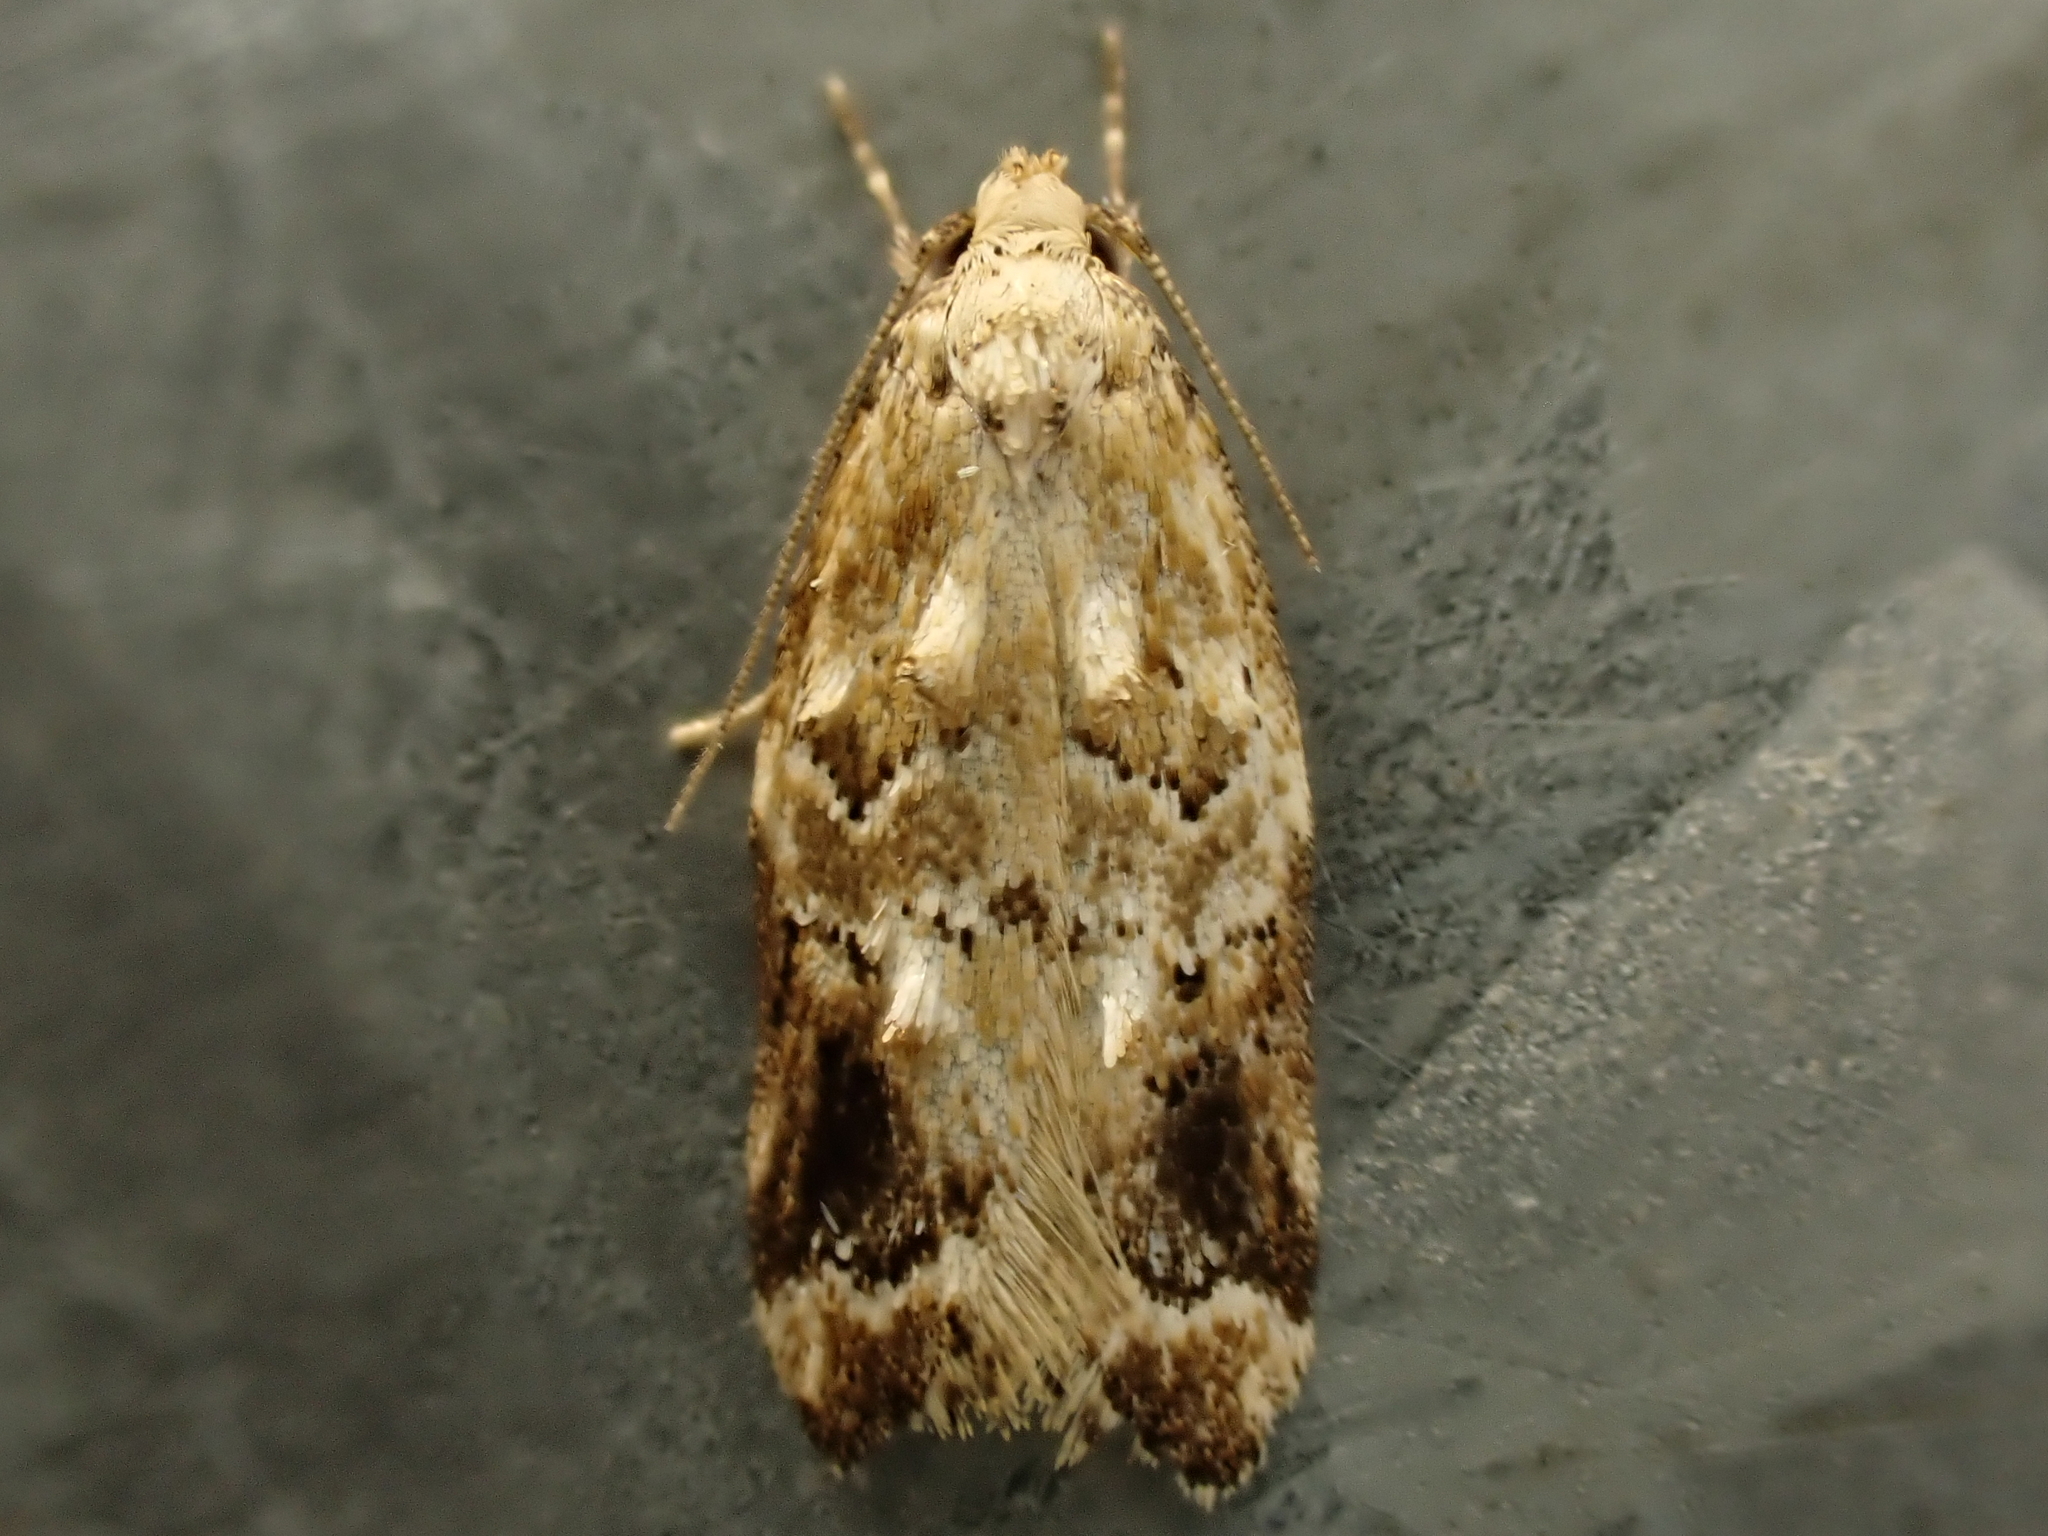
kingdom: Animalia
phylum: Arthropoda
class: Insecta
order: Lepidoptera
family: Oecophoridae
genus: Trachypepla
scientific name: Trachypepla aspidephora
